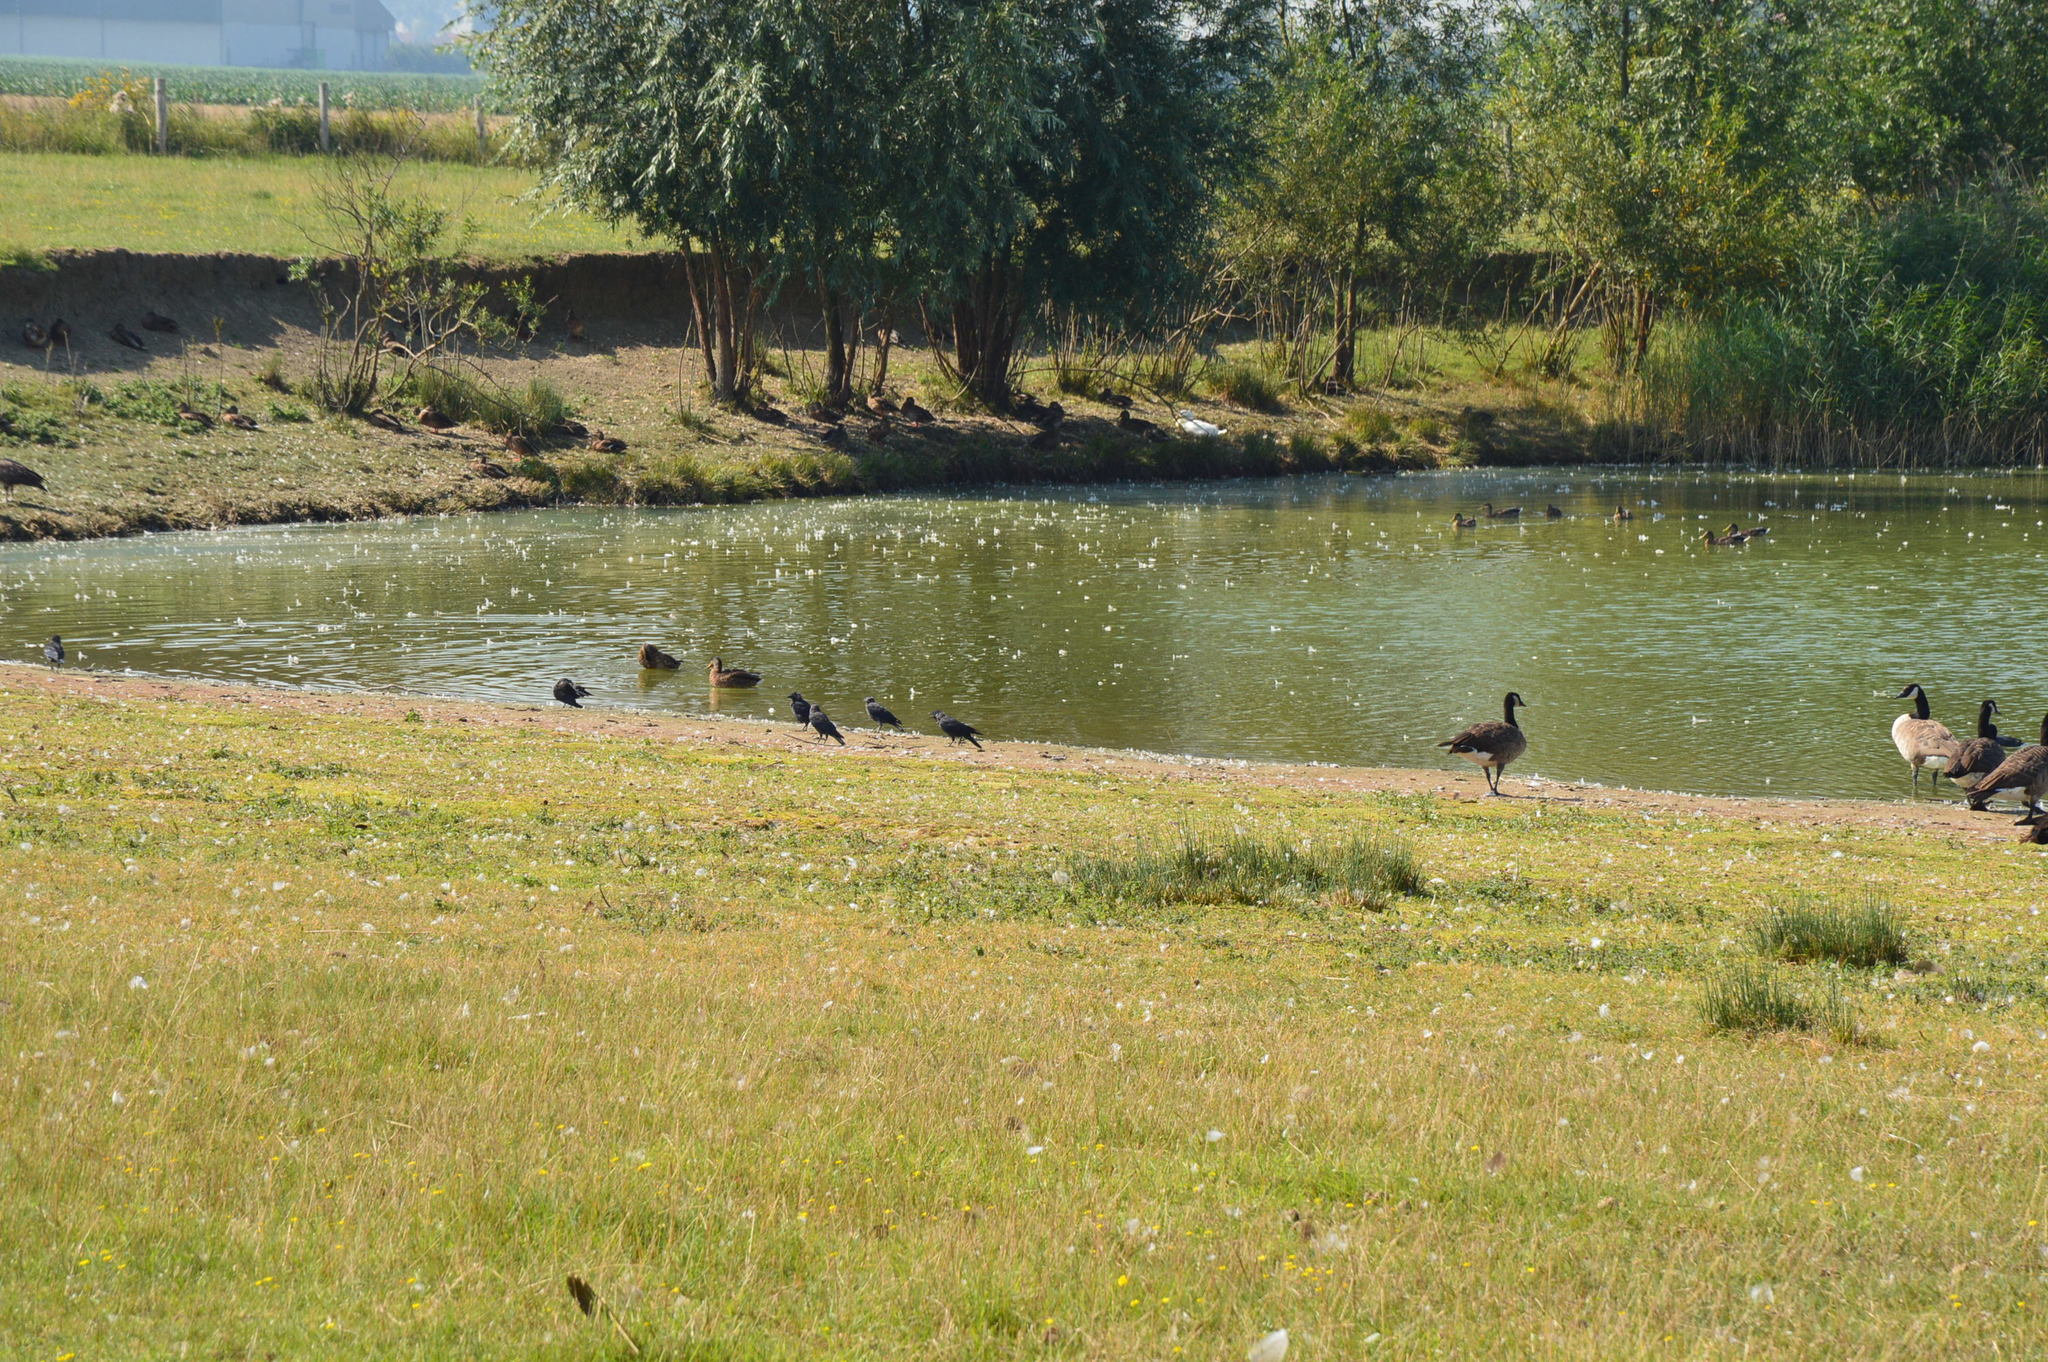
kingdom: Animalia
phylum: Chordata
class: Aves
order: Passeriformes
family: Corvidae
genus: Coloeus
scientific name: Coloeus monedula
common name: Western jackdaw
